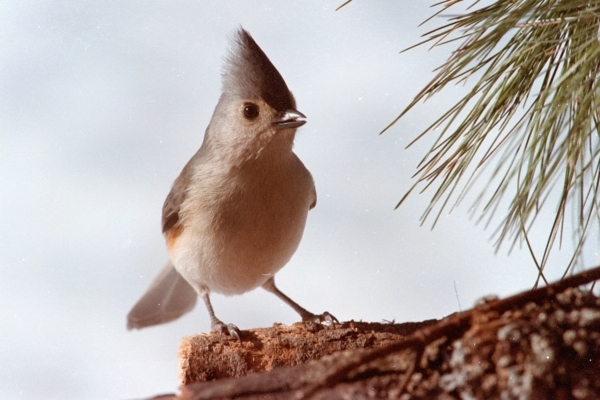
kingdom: Animalia
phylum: Chordata
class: Aves
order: Passeriformes
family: Paridae
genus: Baeolophus
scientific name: Baeolophus bicolor
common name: Tufted titmouse
